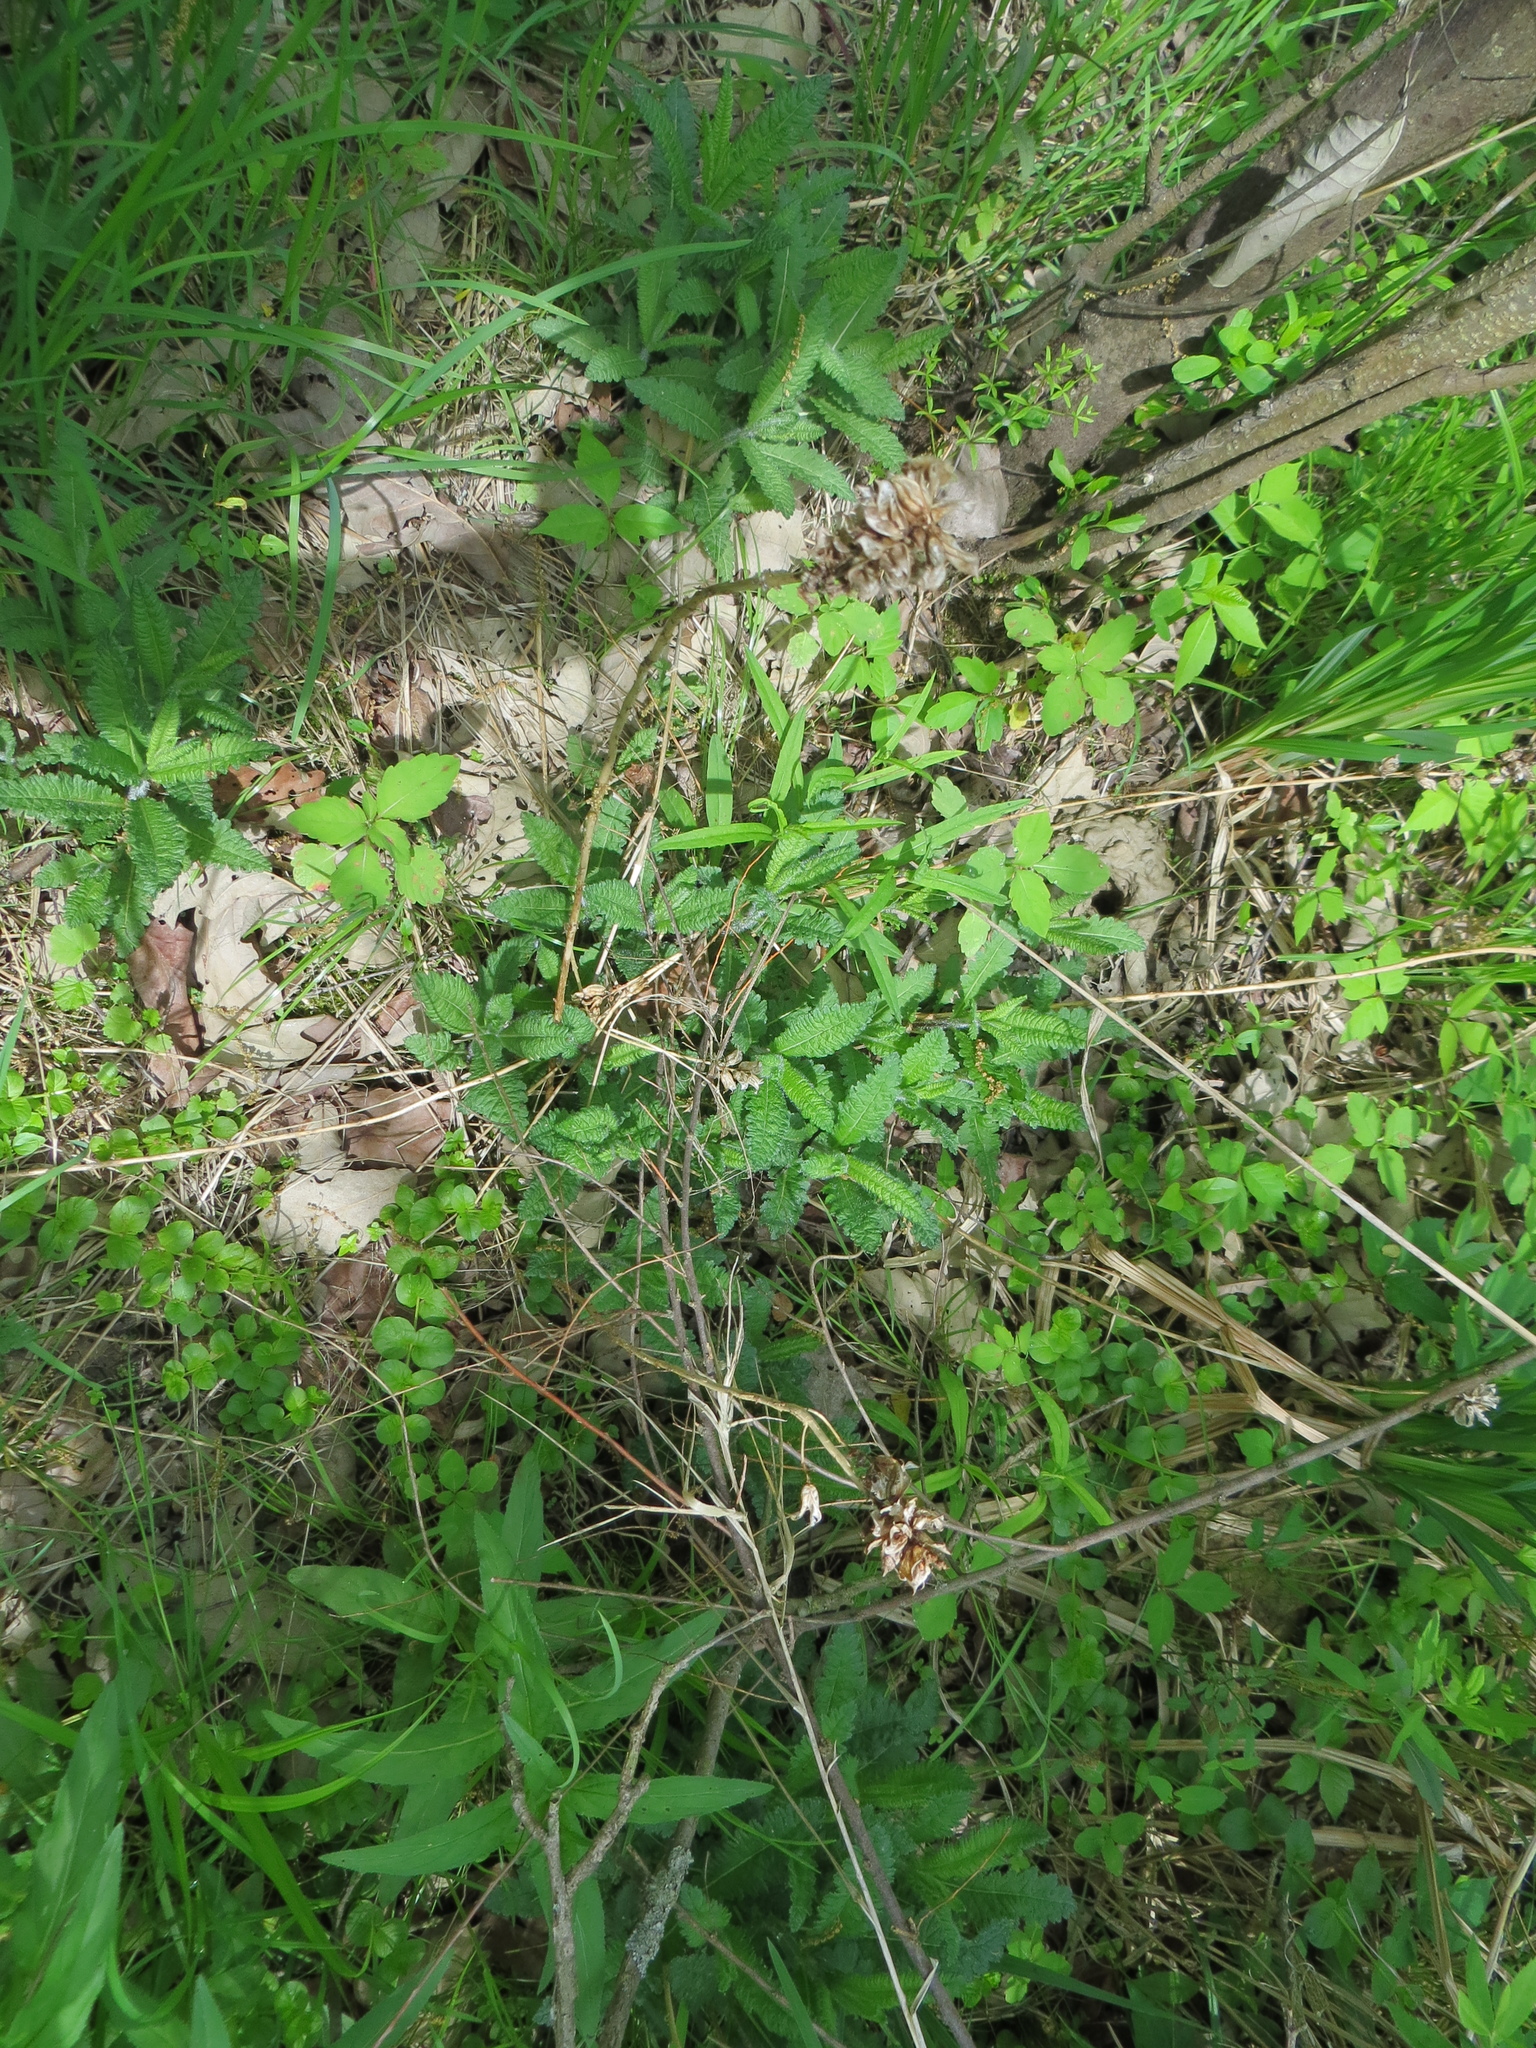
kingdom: Plantae
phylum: Tracheophyta
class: Magnoliopsida
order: Lamiales
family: Orobanchaceae
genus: Pedicularis
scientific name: Pedicularis lanceolata
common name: Swamp lousewort
